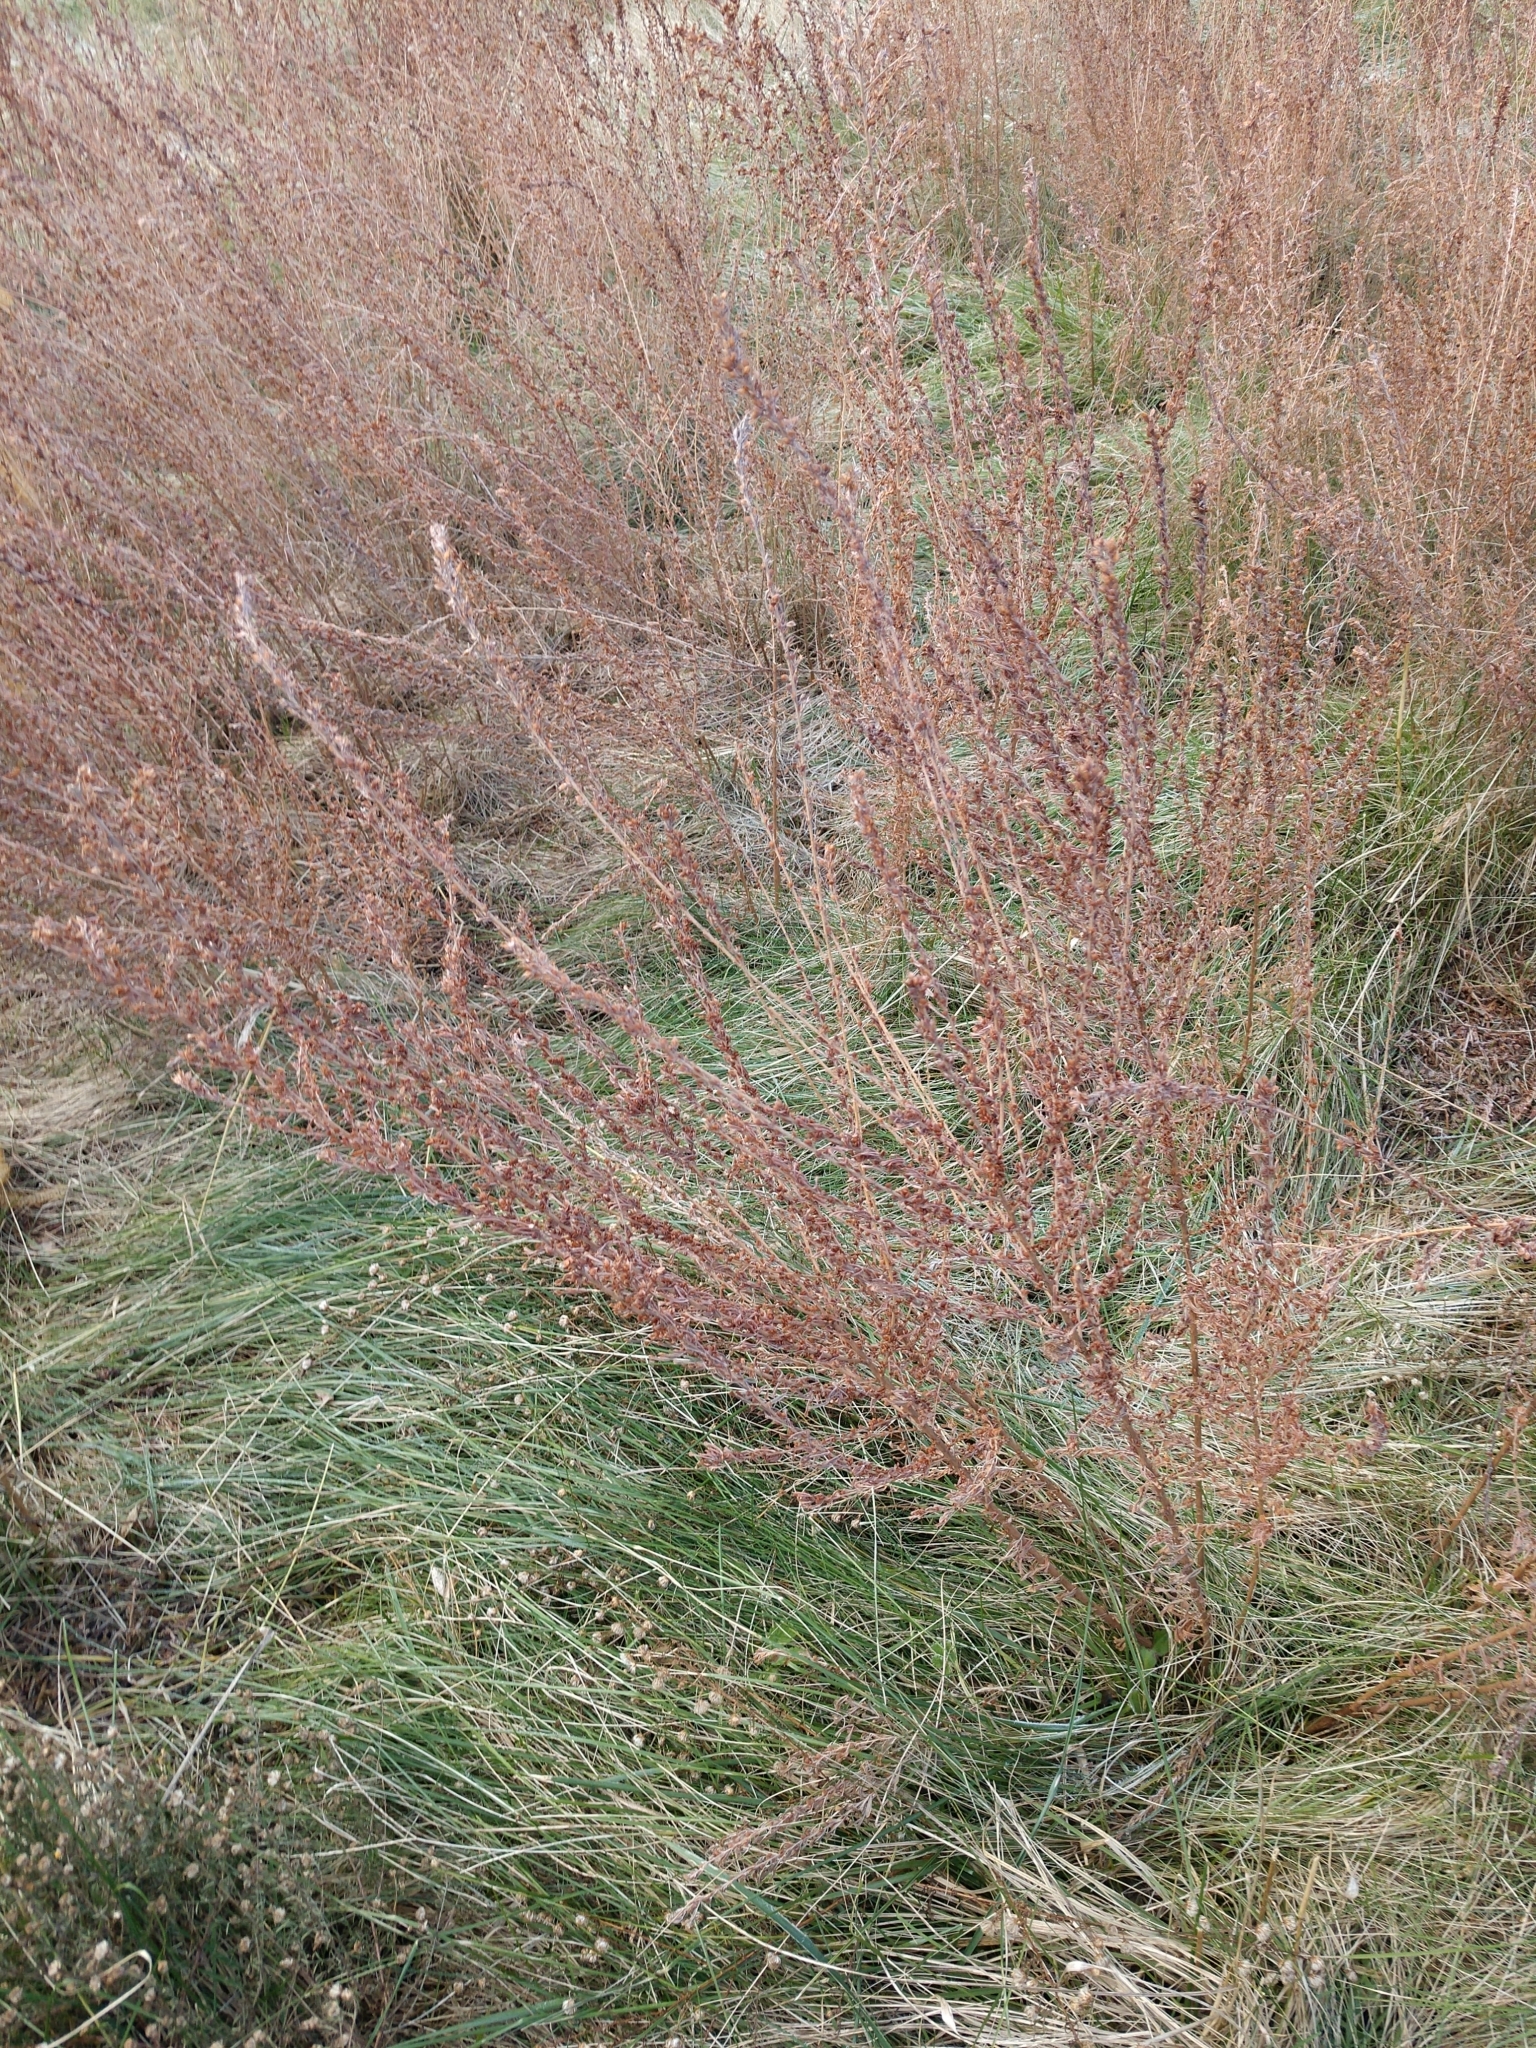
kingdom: Plantae
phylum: Tracheophyta
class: Magnoliopsida
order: Fabales
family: Fabaceae
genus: Lespedeza
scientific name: Lespedeza cuneata
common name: Chinese bush-clover
